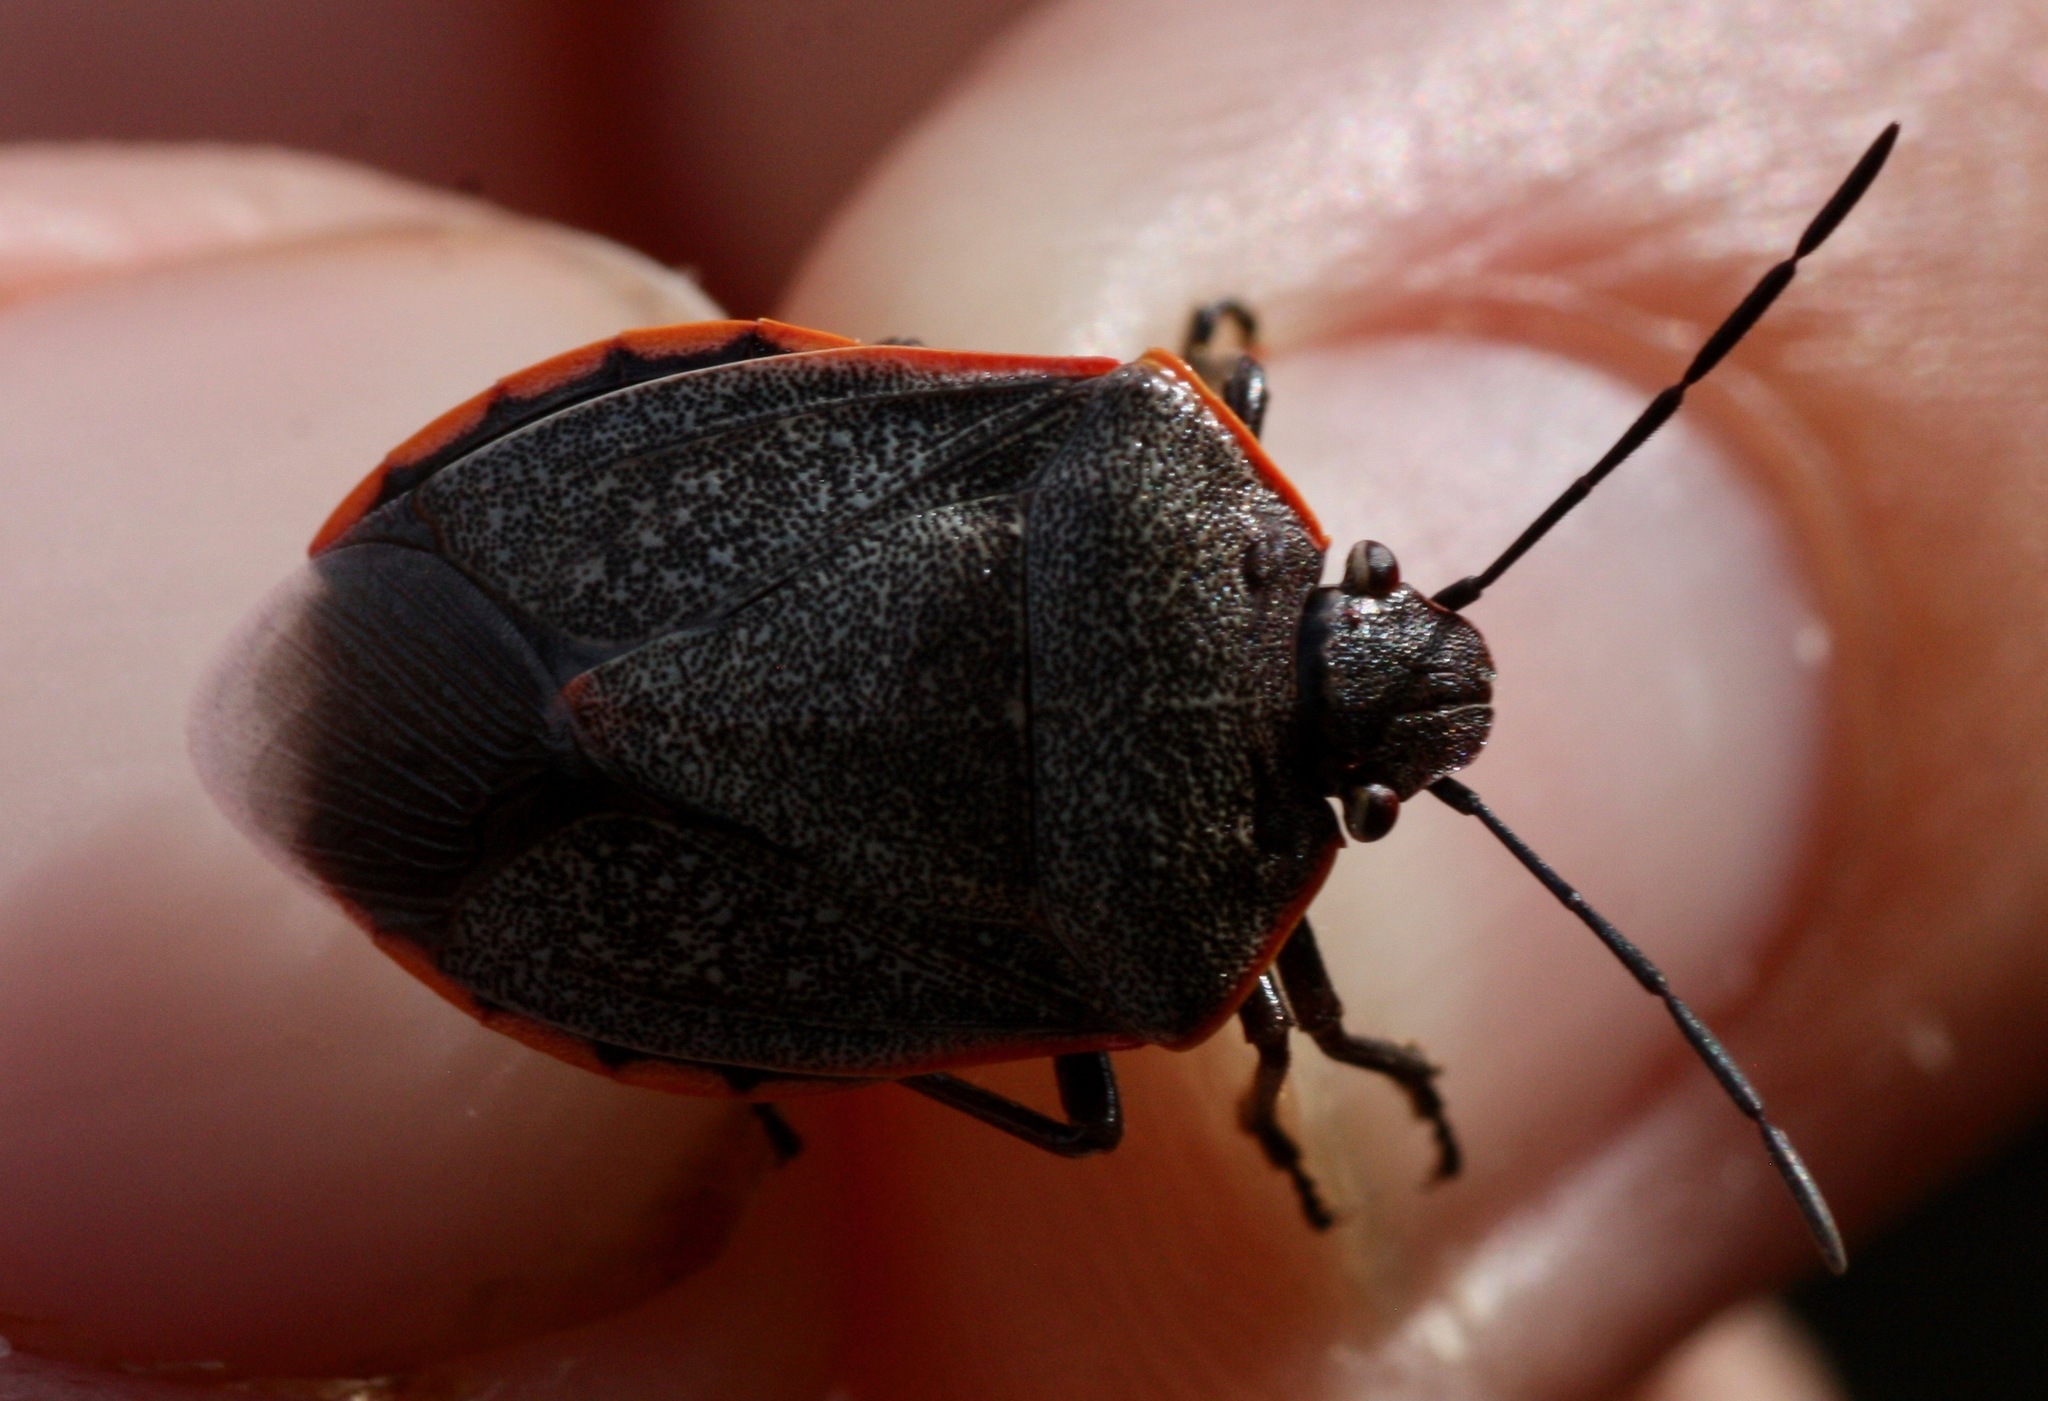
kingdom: Animalia
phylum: Arthropoda
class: Insecta
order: Hemiptera
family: Pentatomidae
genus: Chlorochroa
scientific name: Chlorochroa ligata
